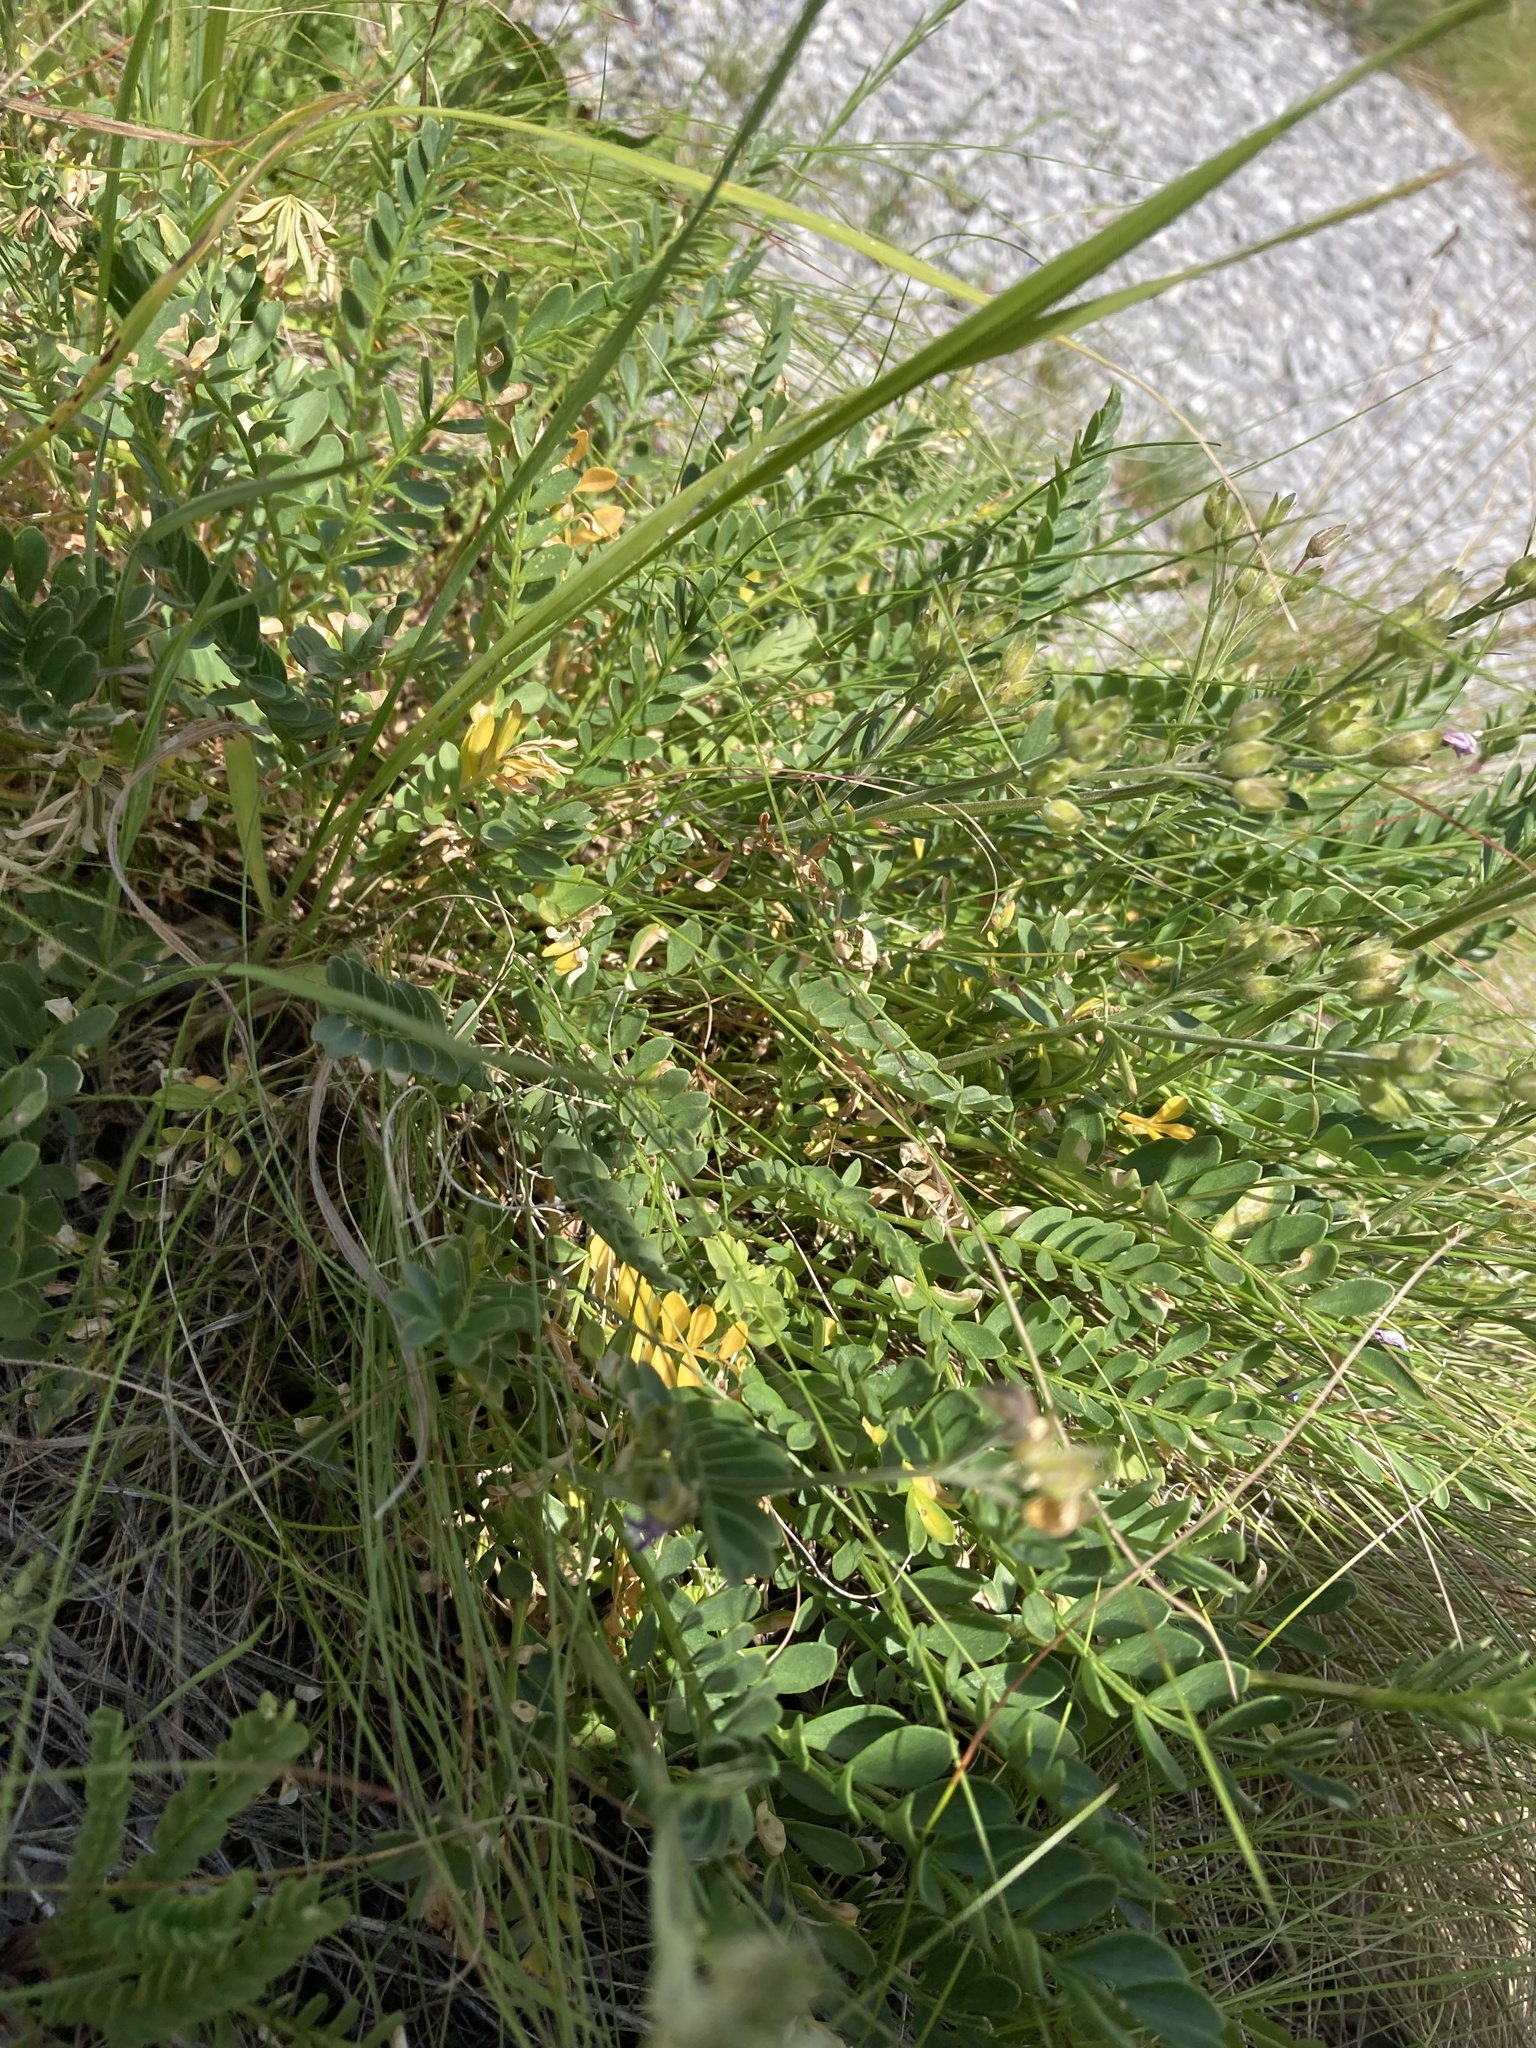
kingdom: Plantae
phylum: Tracheophyta
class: Magnoliopsida
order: Ericales
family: Polemoniaceae
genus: Polemonium
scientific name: Polemonium pulcherrimum
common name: Short jacob's-ladder
